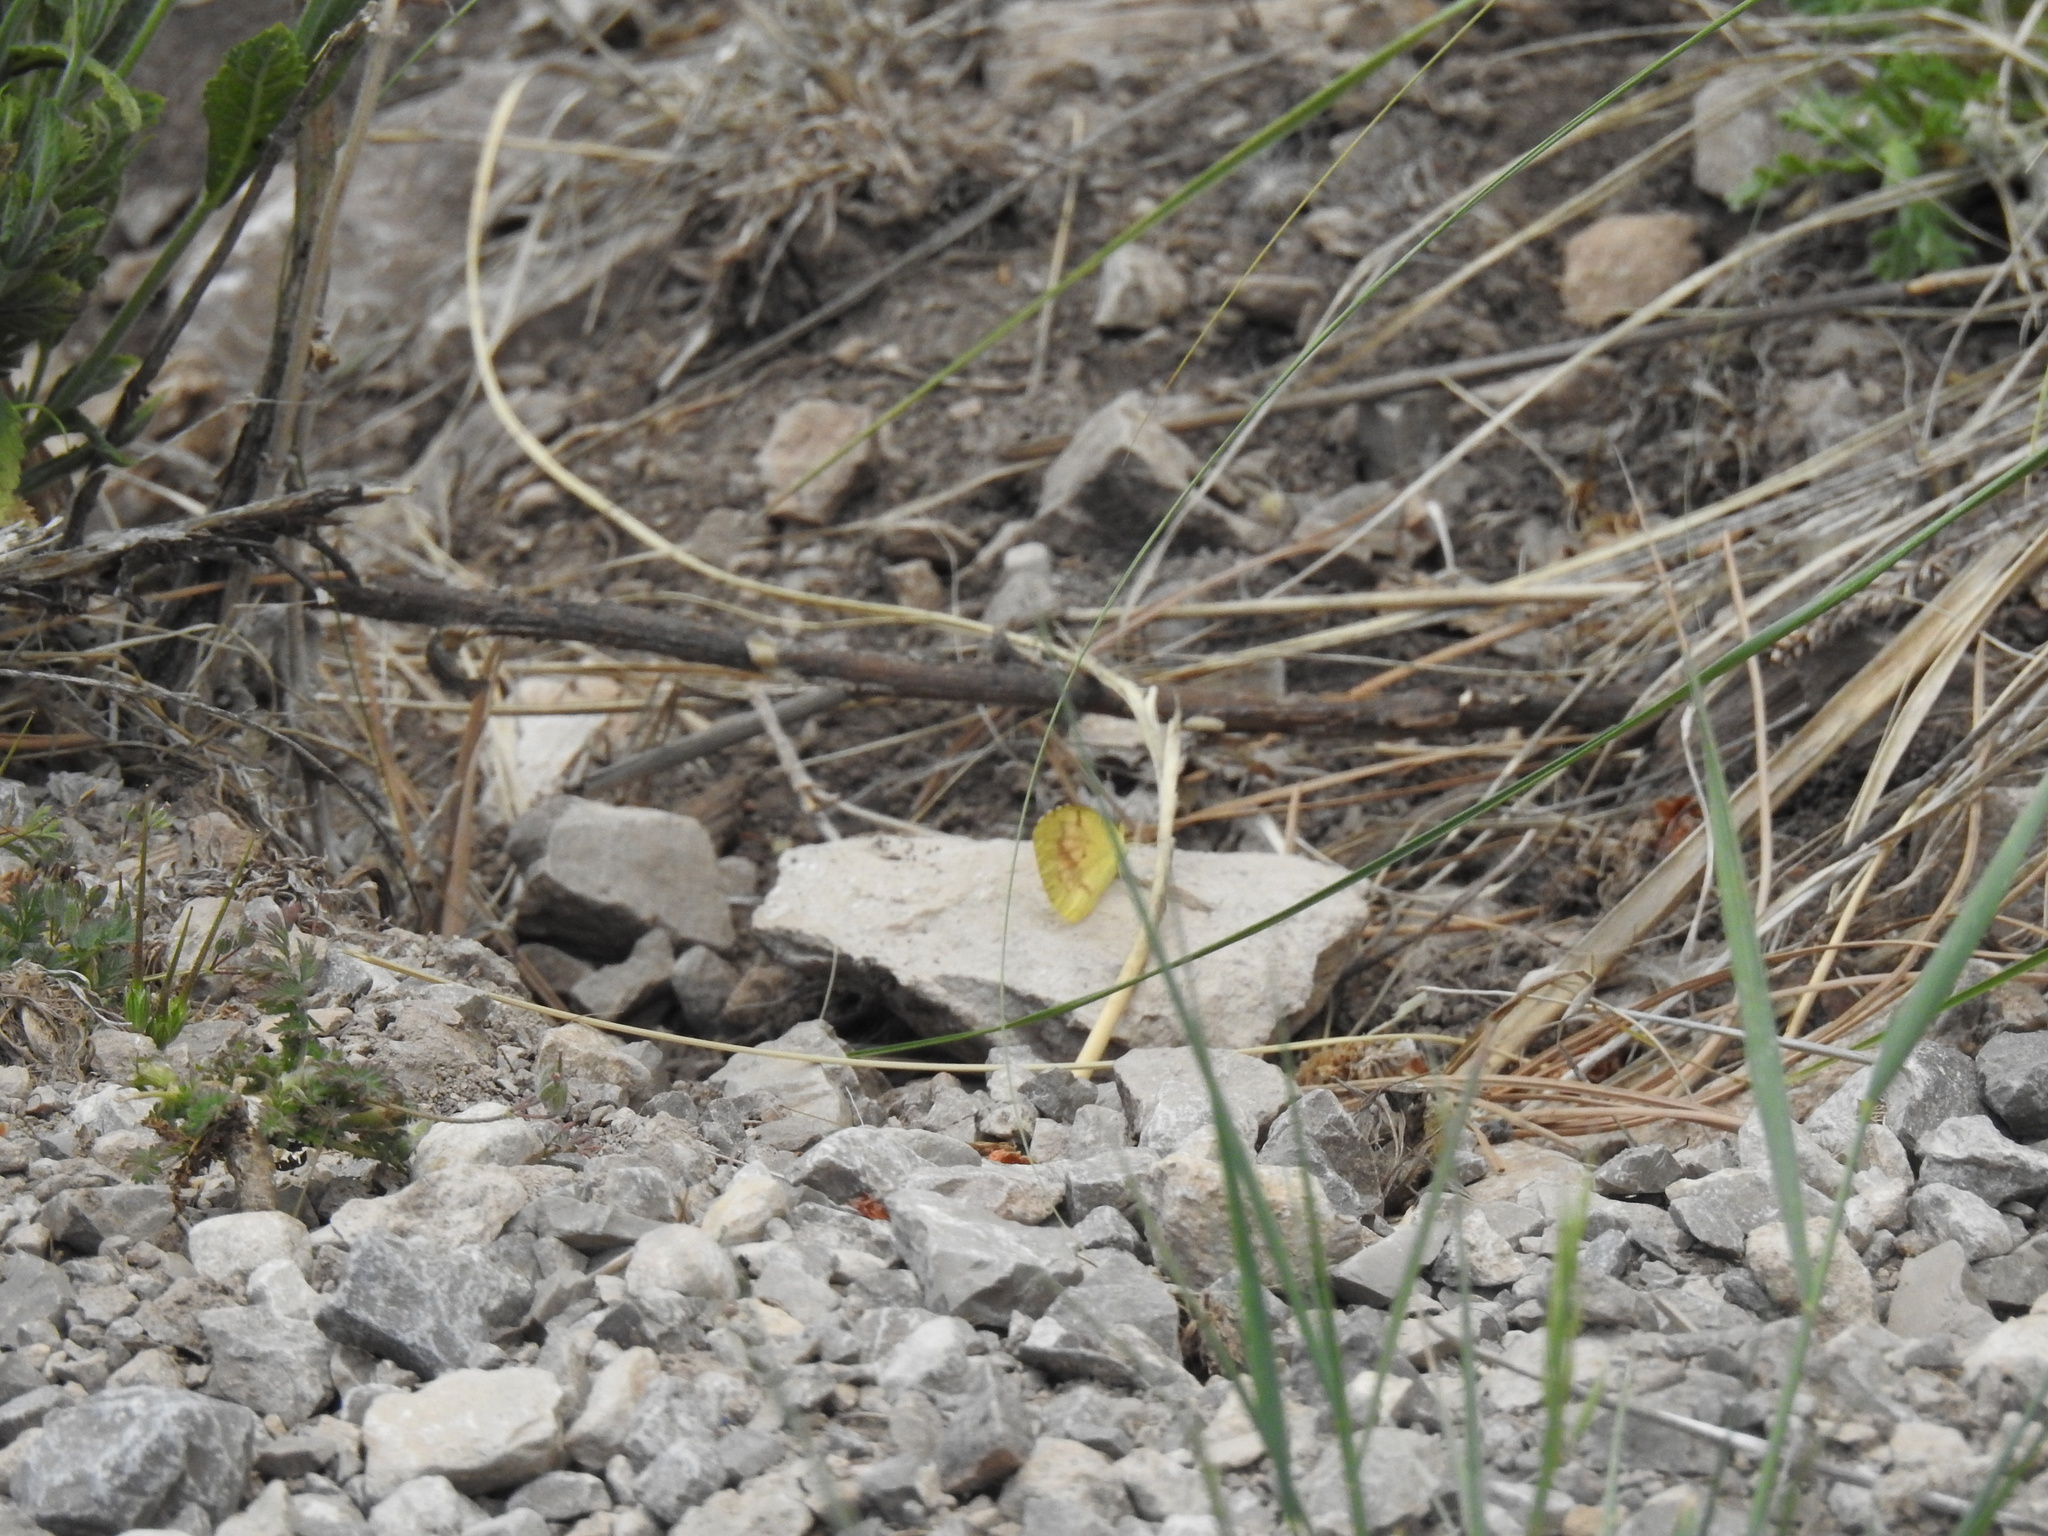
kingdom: Animalia
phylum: Arthropoda
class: Insecta
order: Lepidoptera
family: Pieridae
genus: Abaeis
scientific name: Abaeis nicippe
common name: Sleepy orange
